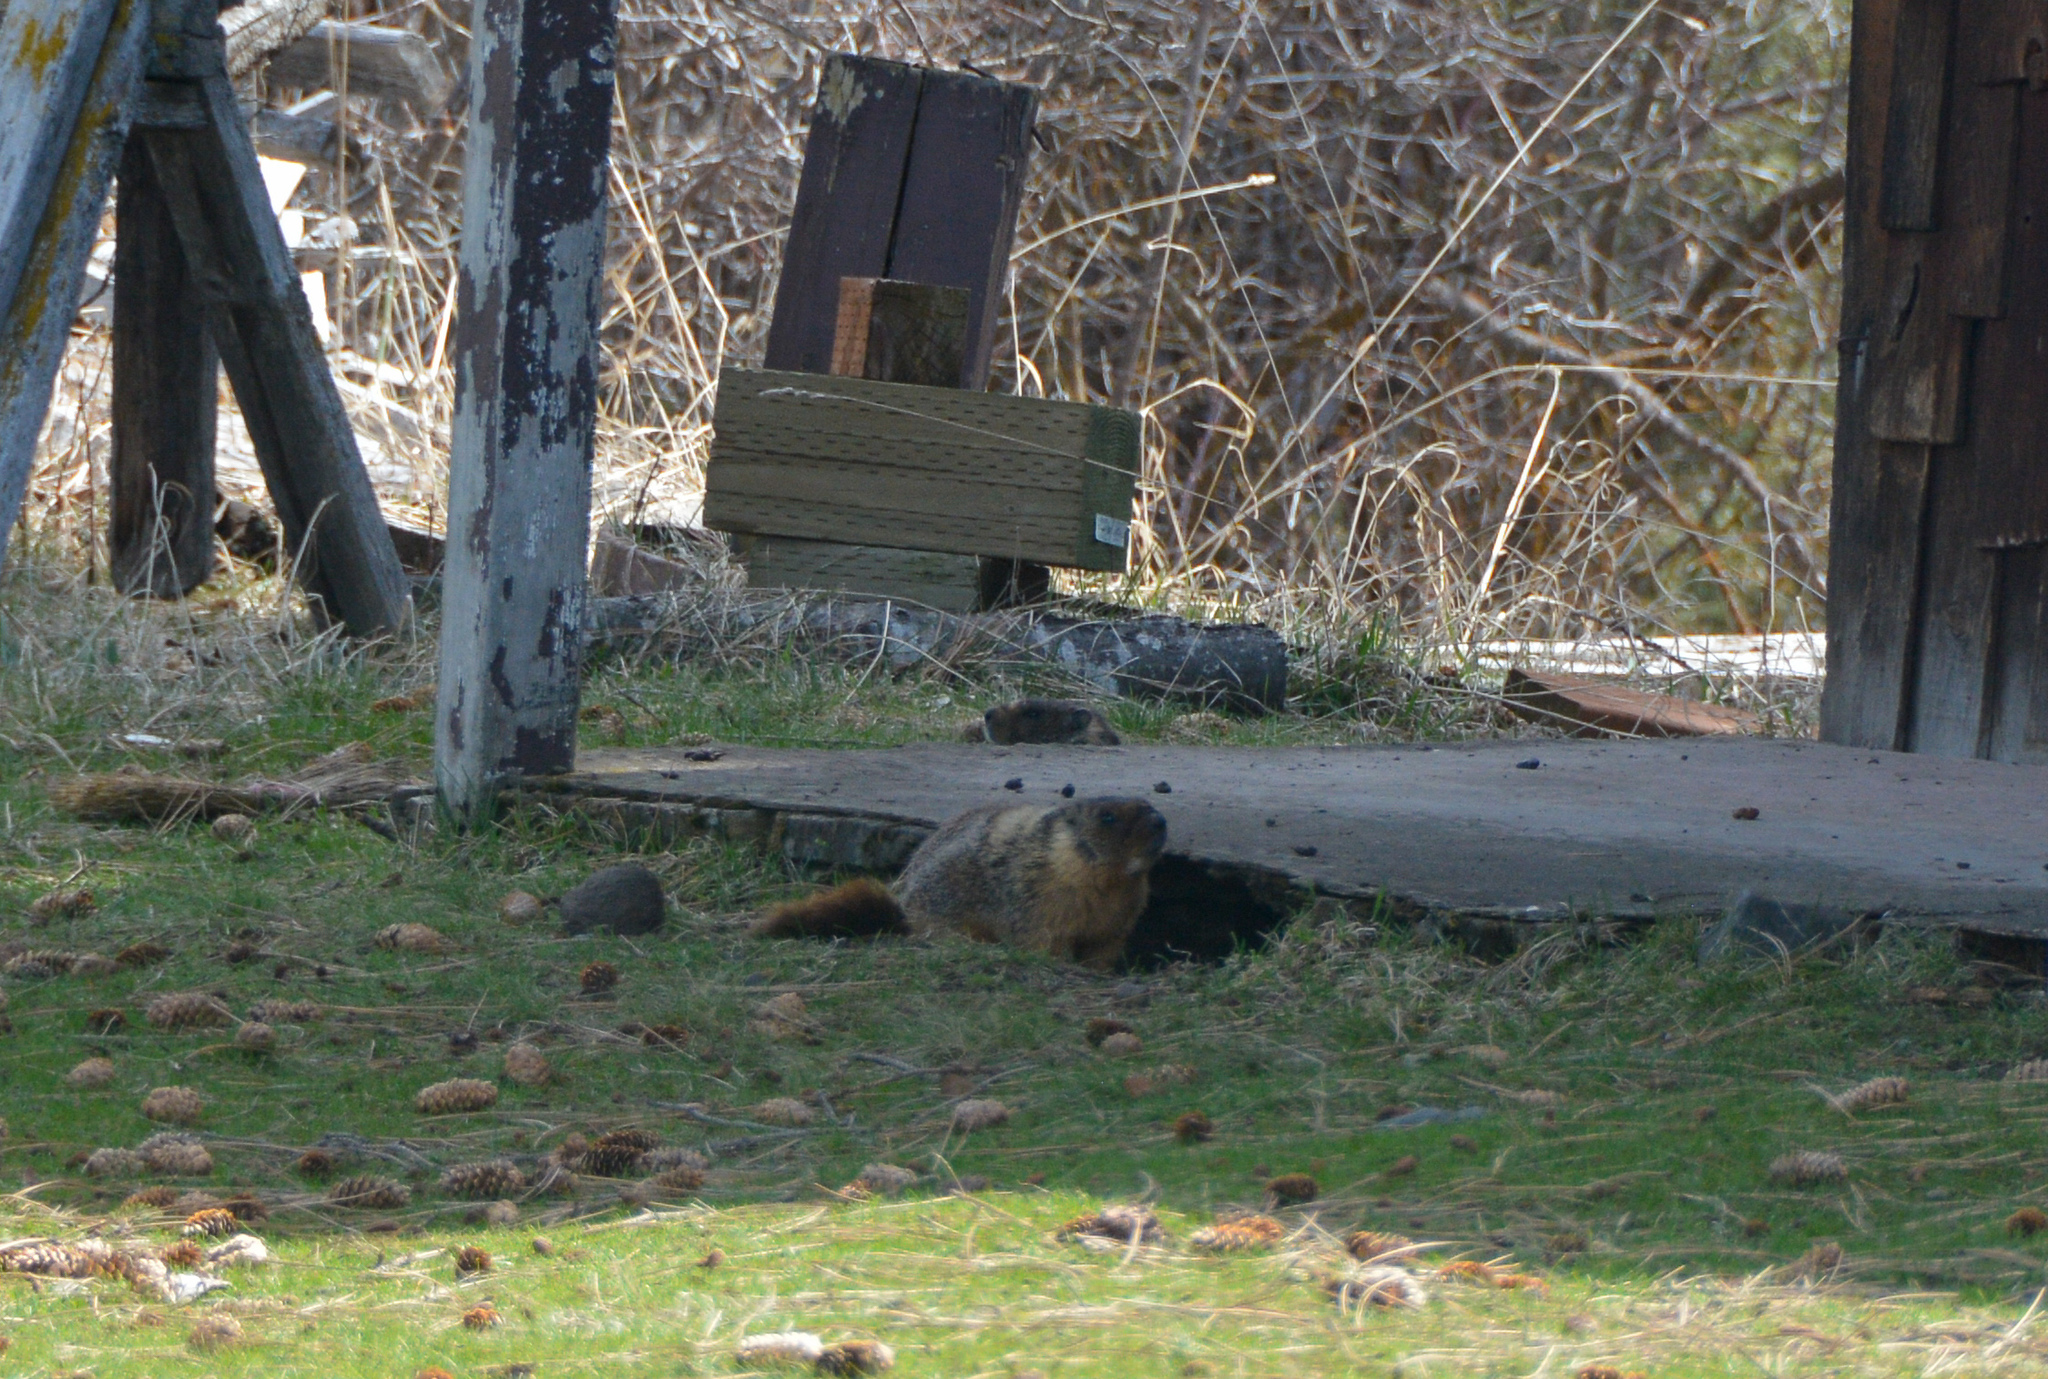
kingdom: Animalia
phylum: Chordata
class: Mammalia
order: Rodentia
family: Sciuridae
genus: Marmota
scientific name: Marmota flaviventris
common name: Yellow-bellied marmot
